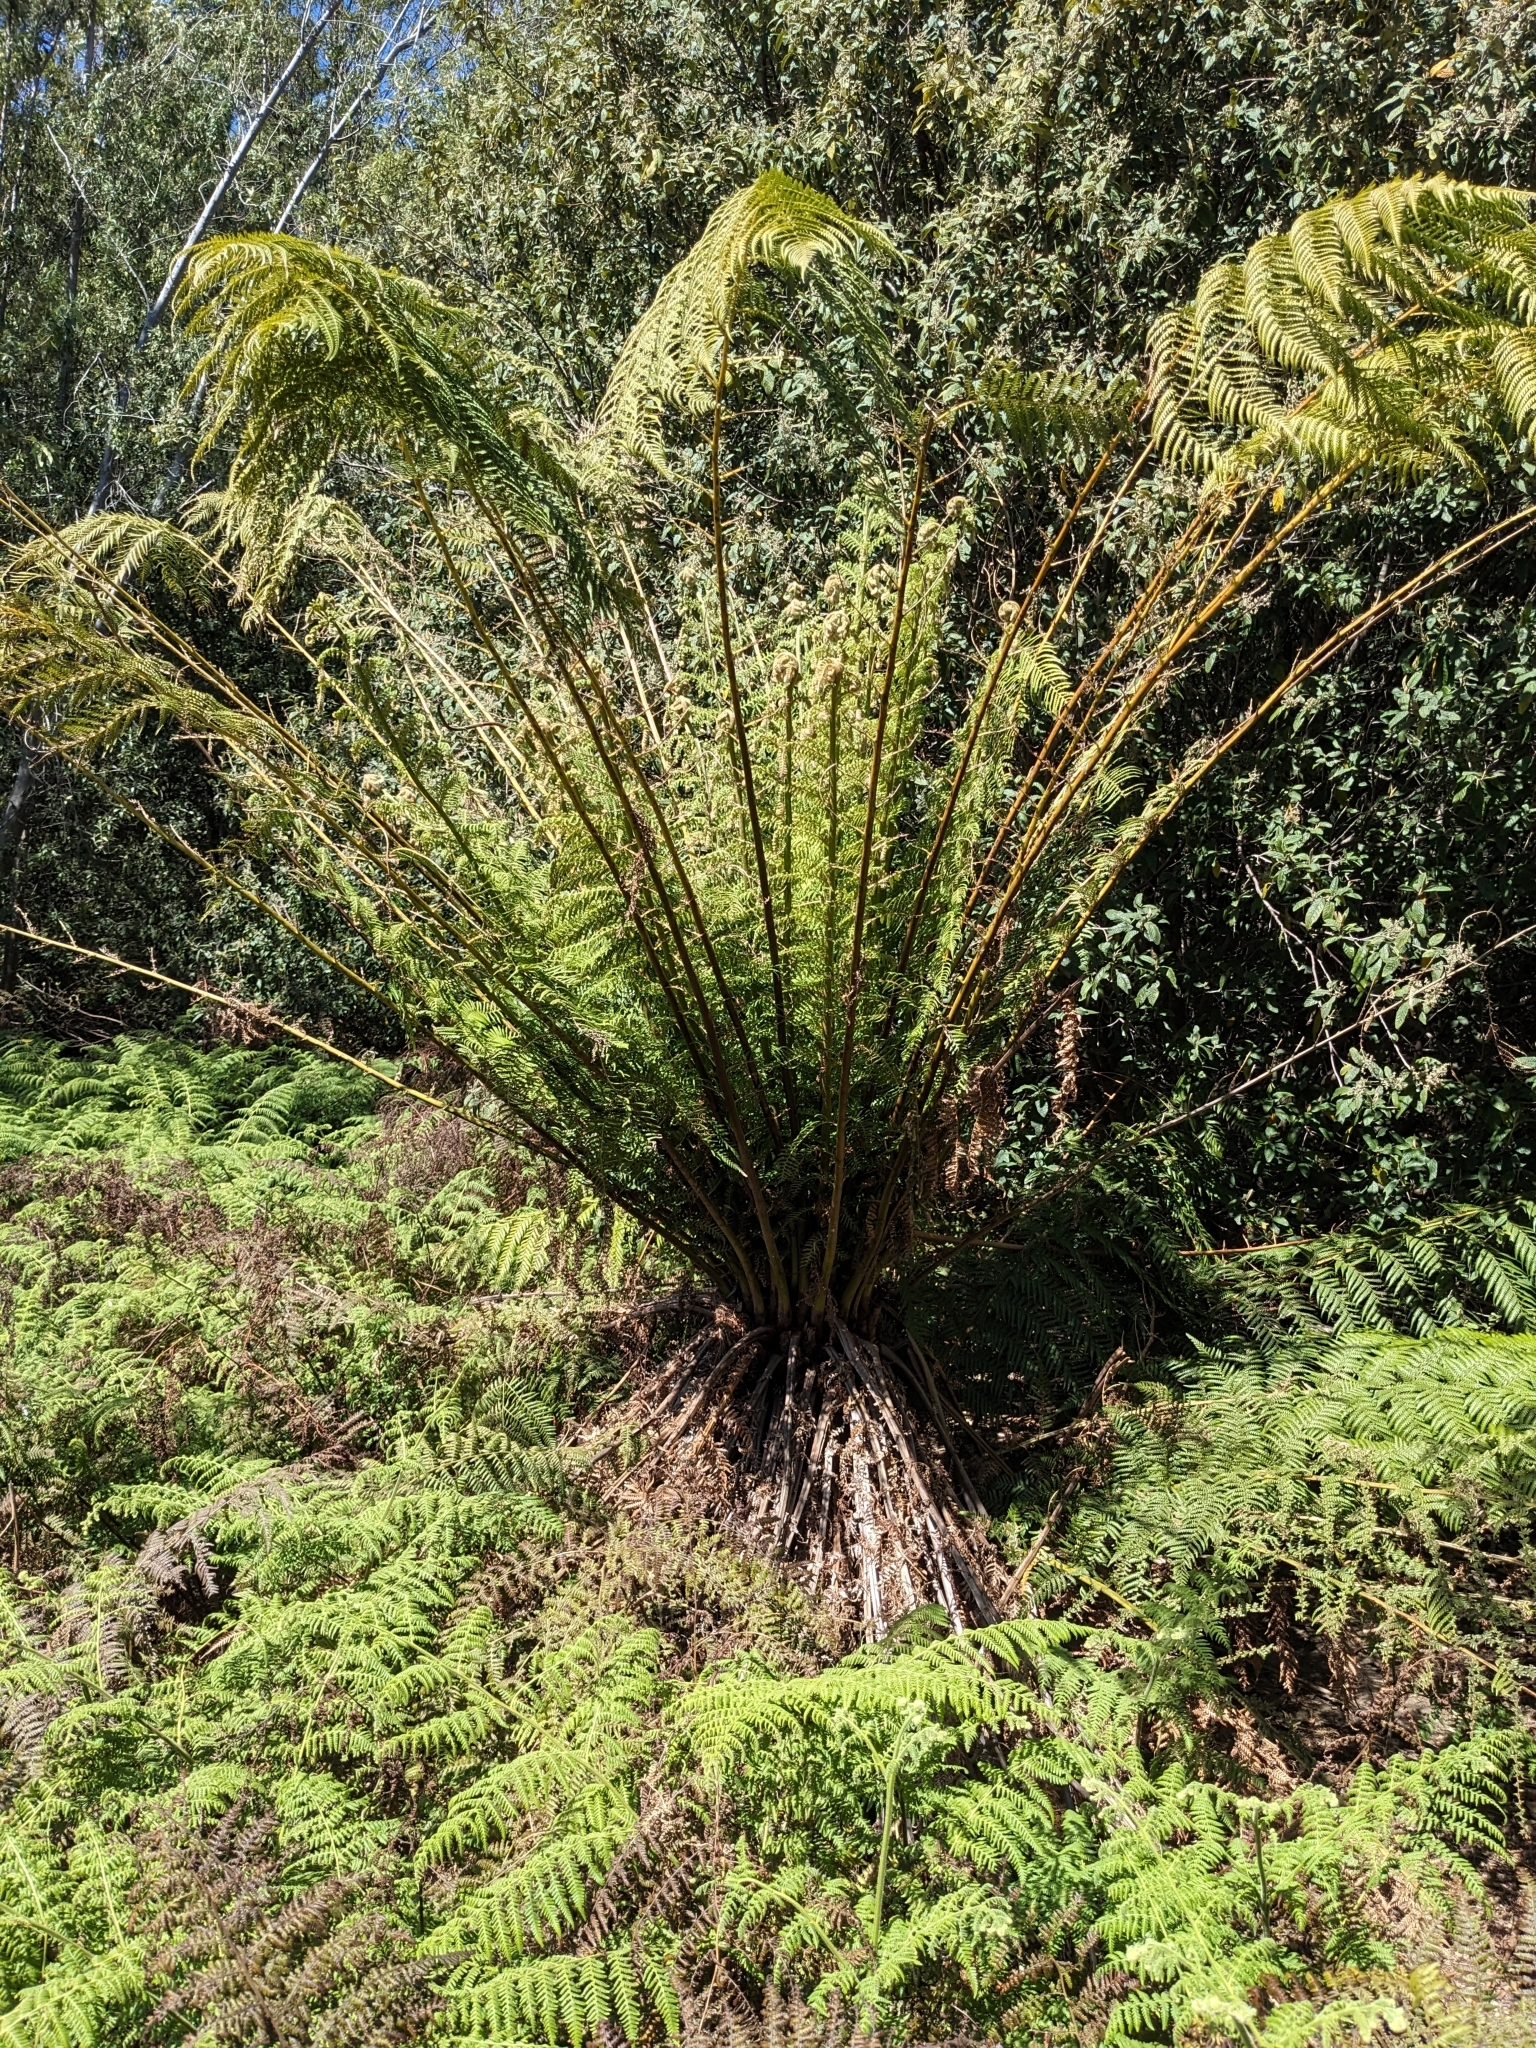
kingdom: Plantae
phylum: Tracheophyta
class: Polypodiopsida
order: Cyatheales
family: Dicksoniaceae
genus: Dicksonia
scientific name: Dicksonia antarctica
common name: Australian treefern
